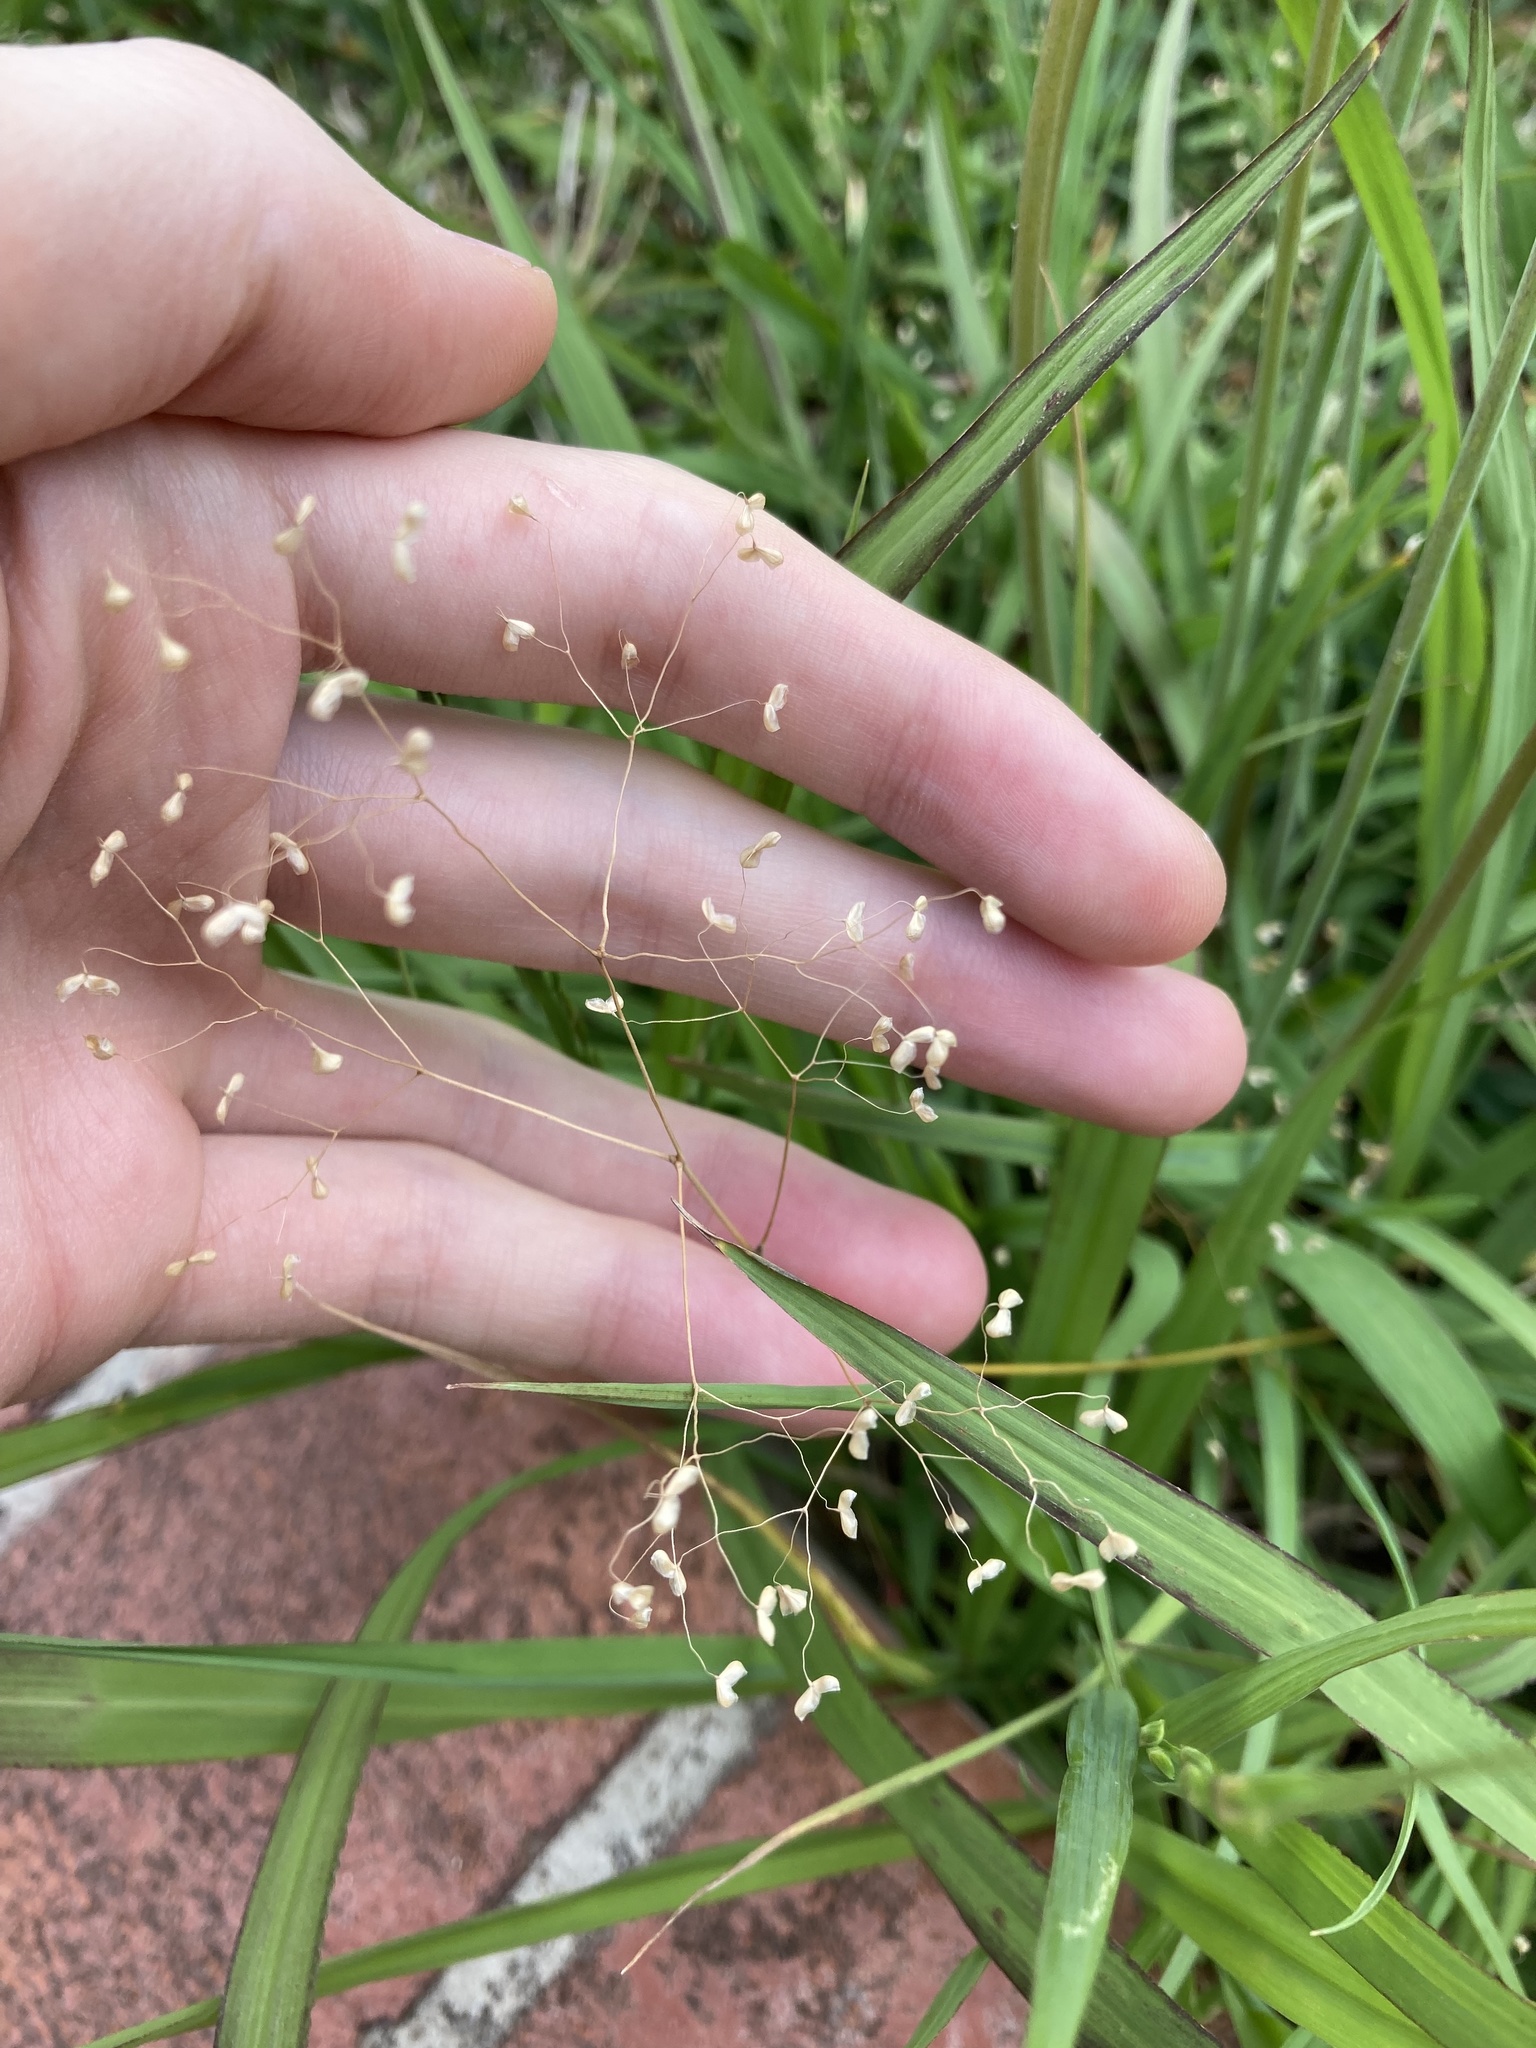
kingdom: Plantae
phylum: Tracheophyta
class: Liliopsida
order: Poales
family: Poaceae
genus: Briza
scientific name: Briza minor
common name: Lesser quaking-grass
